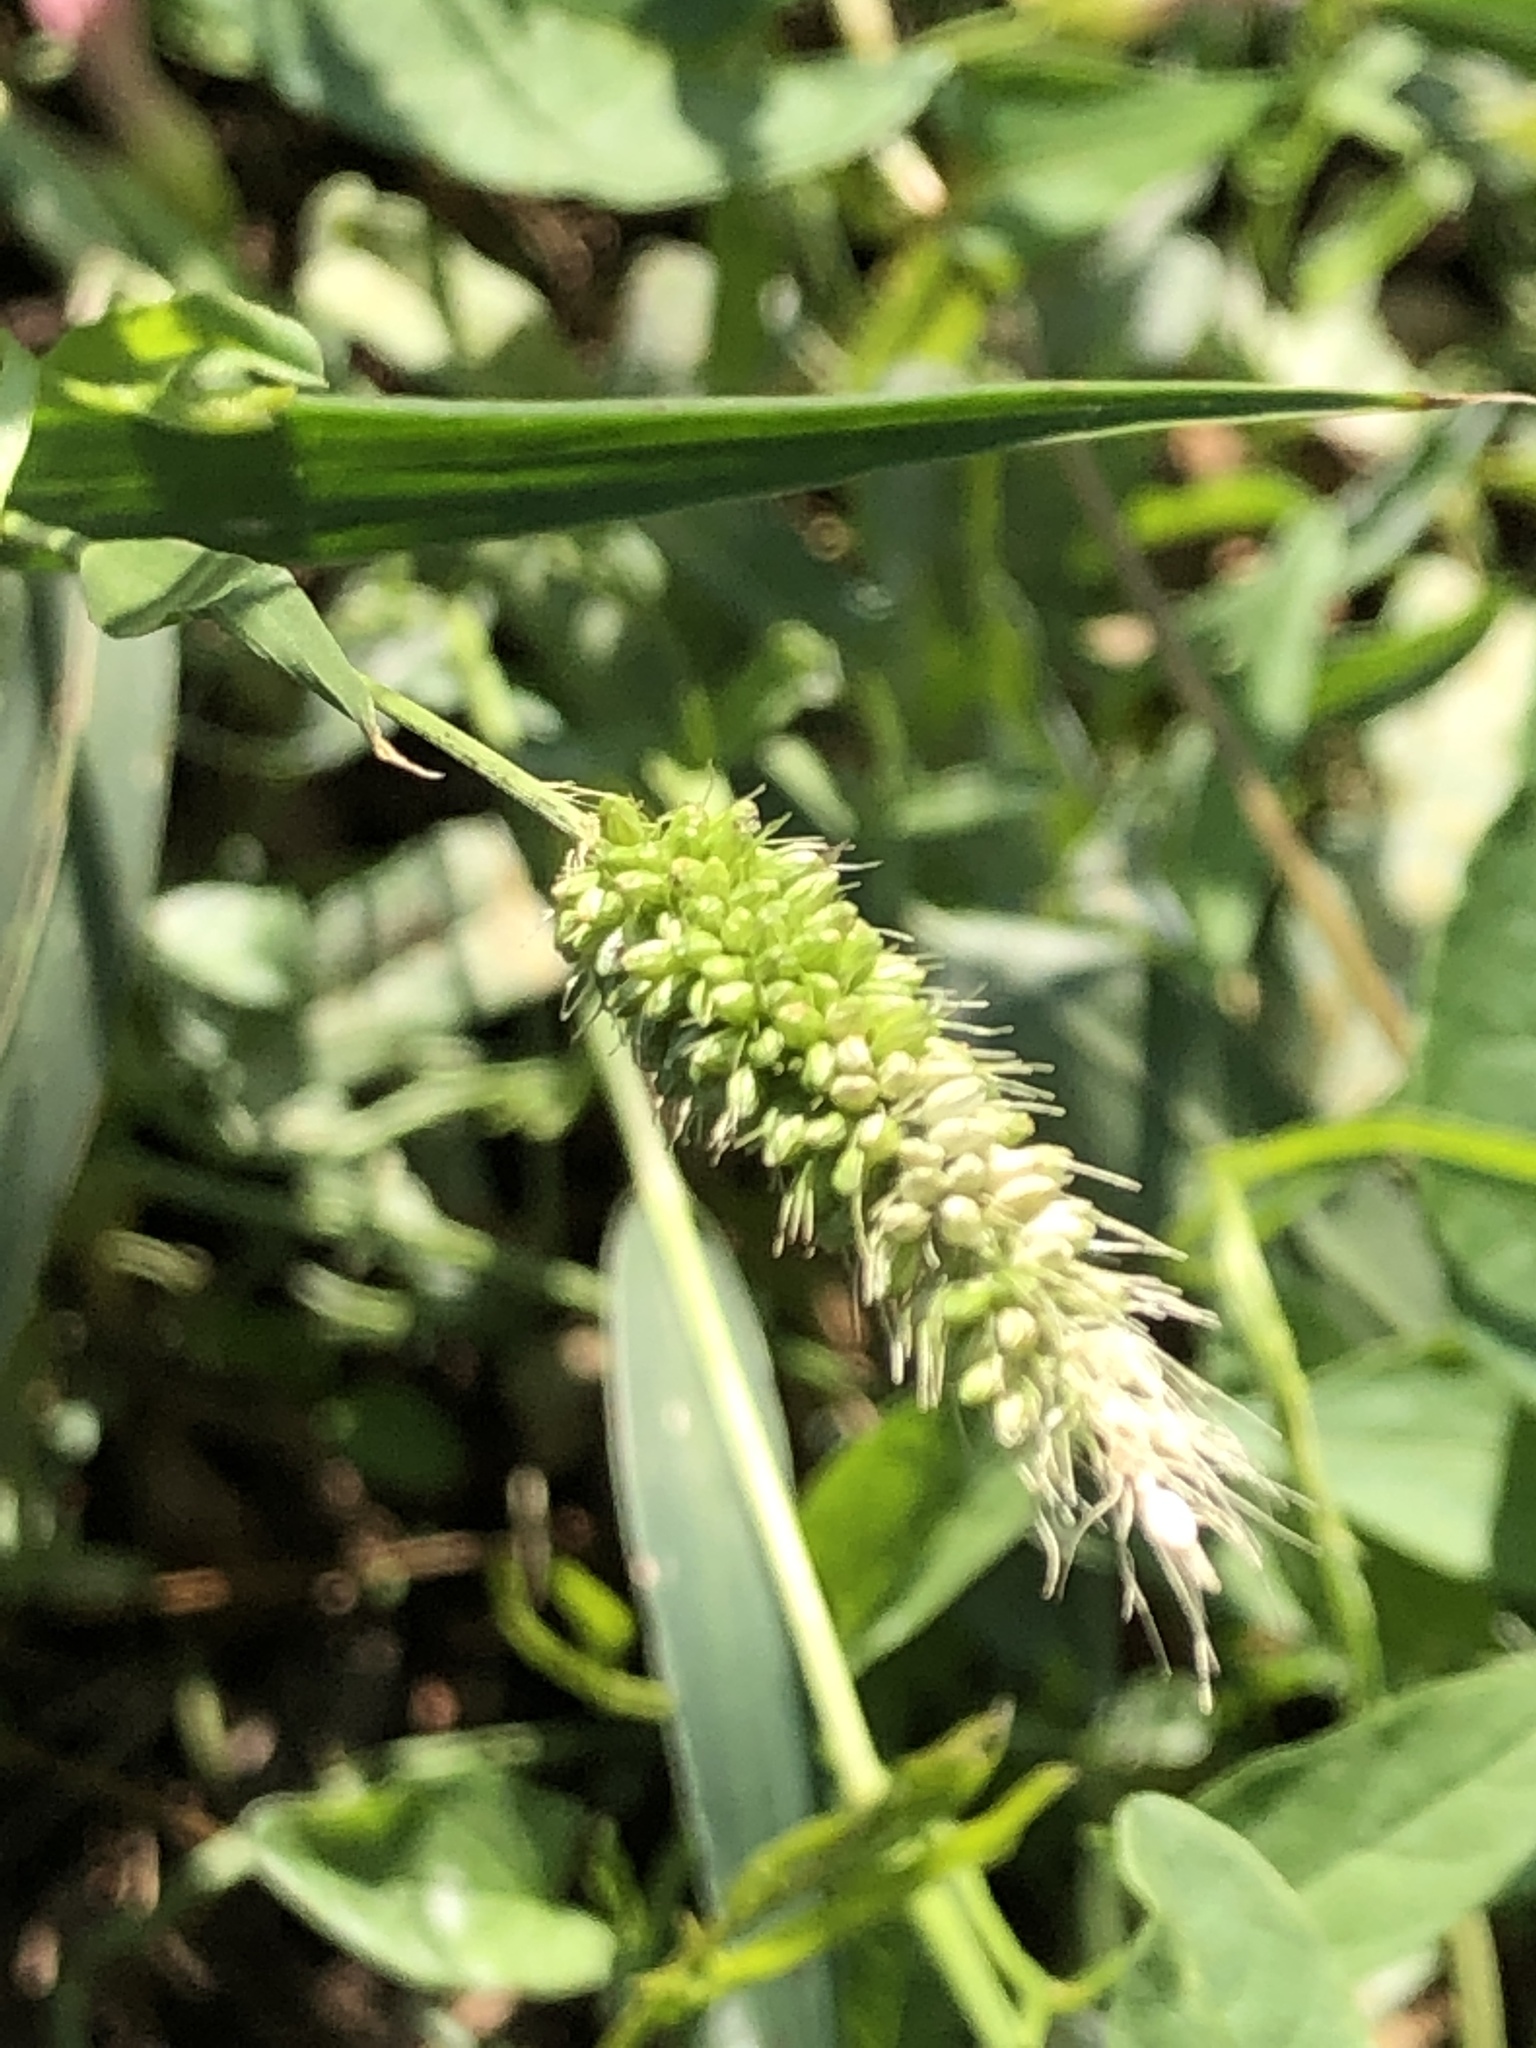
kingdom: Plantae
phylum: Tracheophyta
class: Liliopsida
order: Poales
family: Poaceae
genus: Setaria
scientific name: Setaria viridis
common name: Green bristlegrass
